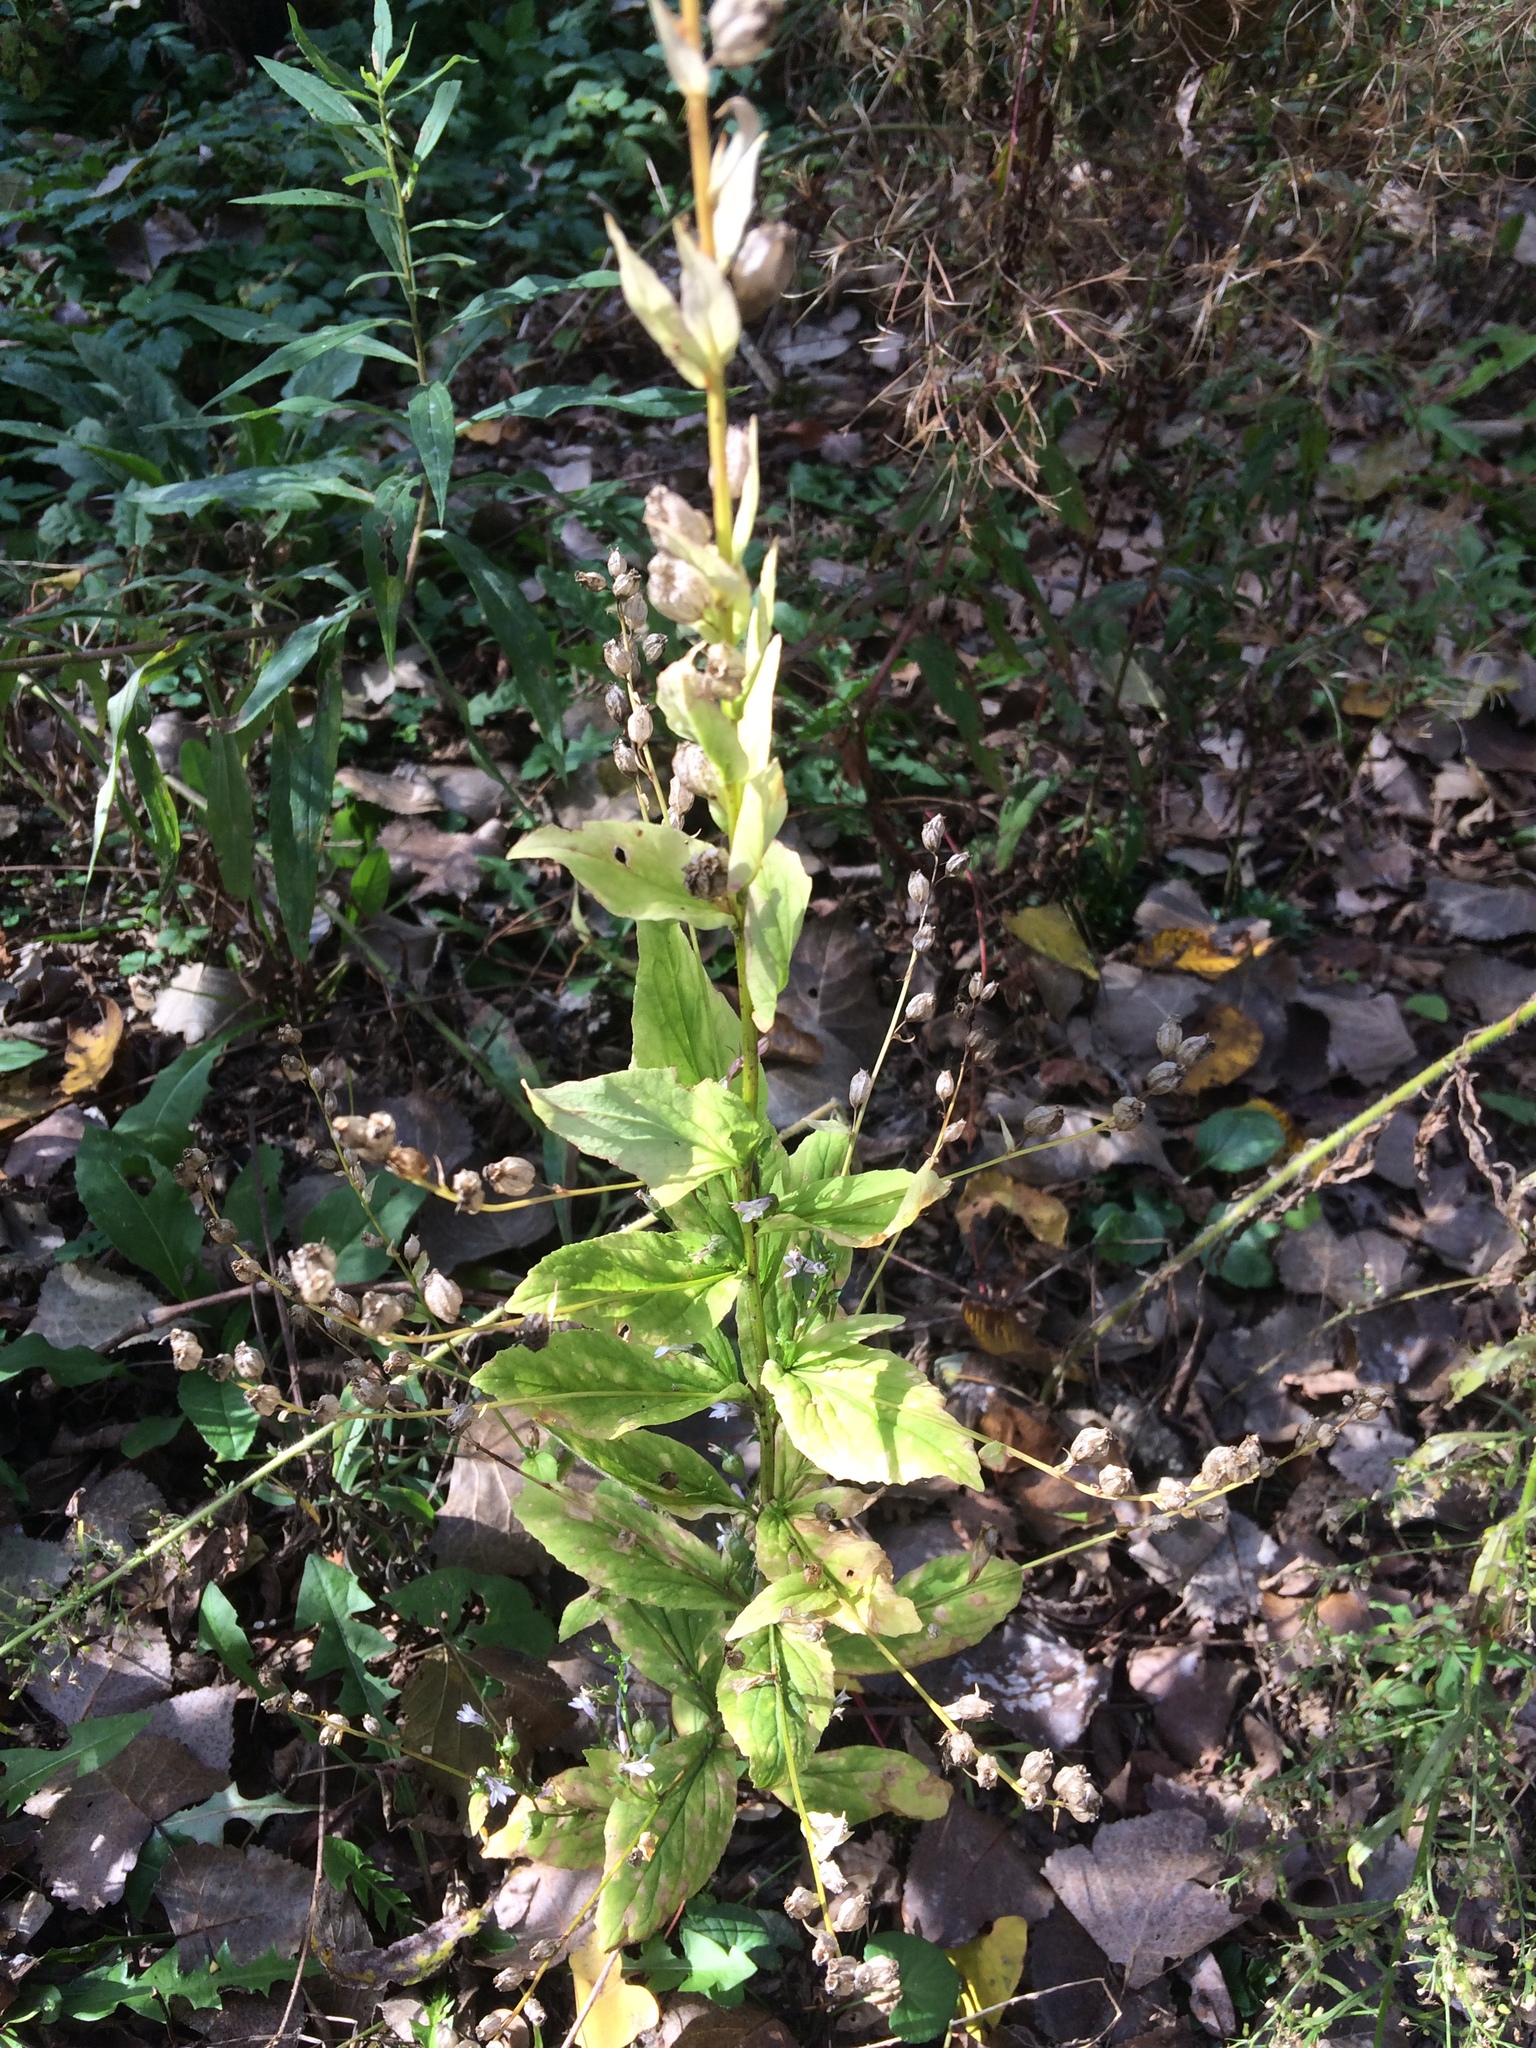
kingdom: Plantae
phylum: Tracheophyta
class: Magnoliopsida
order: Asterales
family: Campanulaceae
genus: Lobelia
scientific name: Lobelia inflata
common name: Indian tobacco
